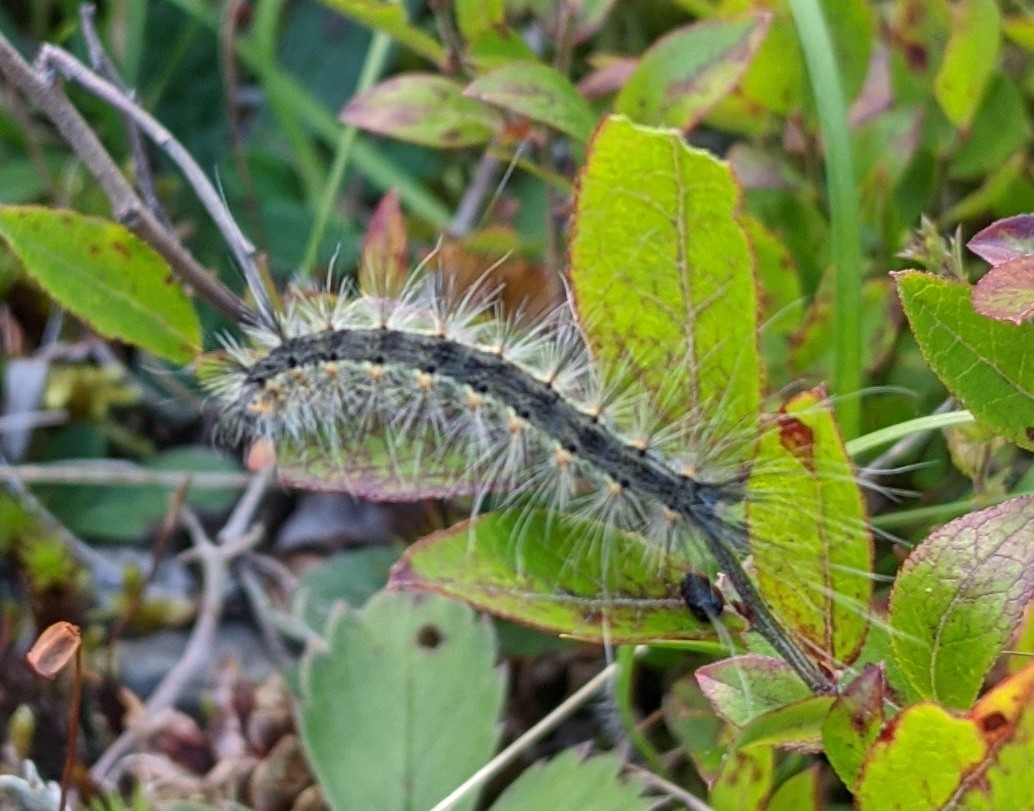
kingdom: Animalia
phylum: Arthropoda
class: Insecta
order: Lepidoptera
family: Erebidae
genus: Hyphantria
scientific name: Hyphantria cunea
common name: American white moth
